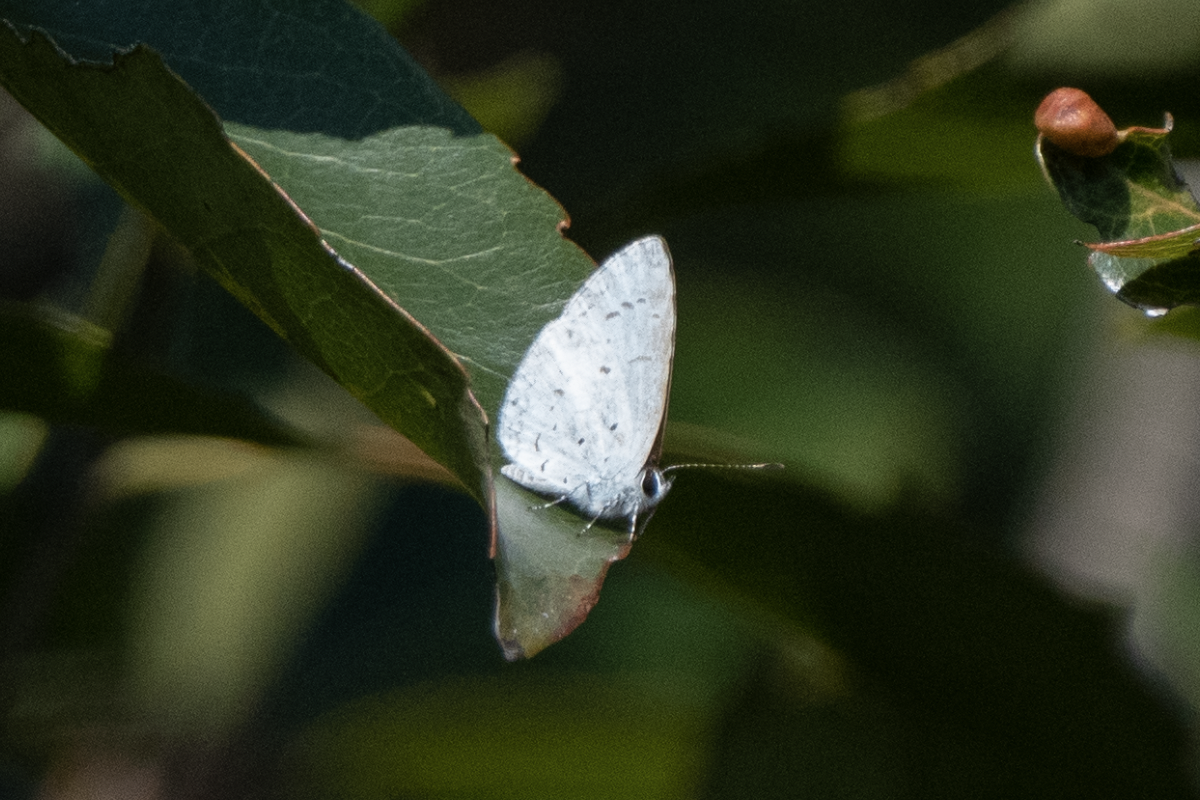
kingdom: Animalia
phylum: Arthropoda
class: Insecta
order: Lepidoptera
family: Lycaenidae
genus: Acytolepis
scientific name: Acytolepis puspa
